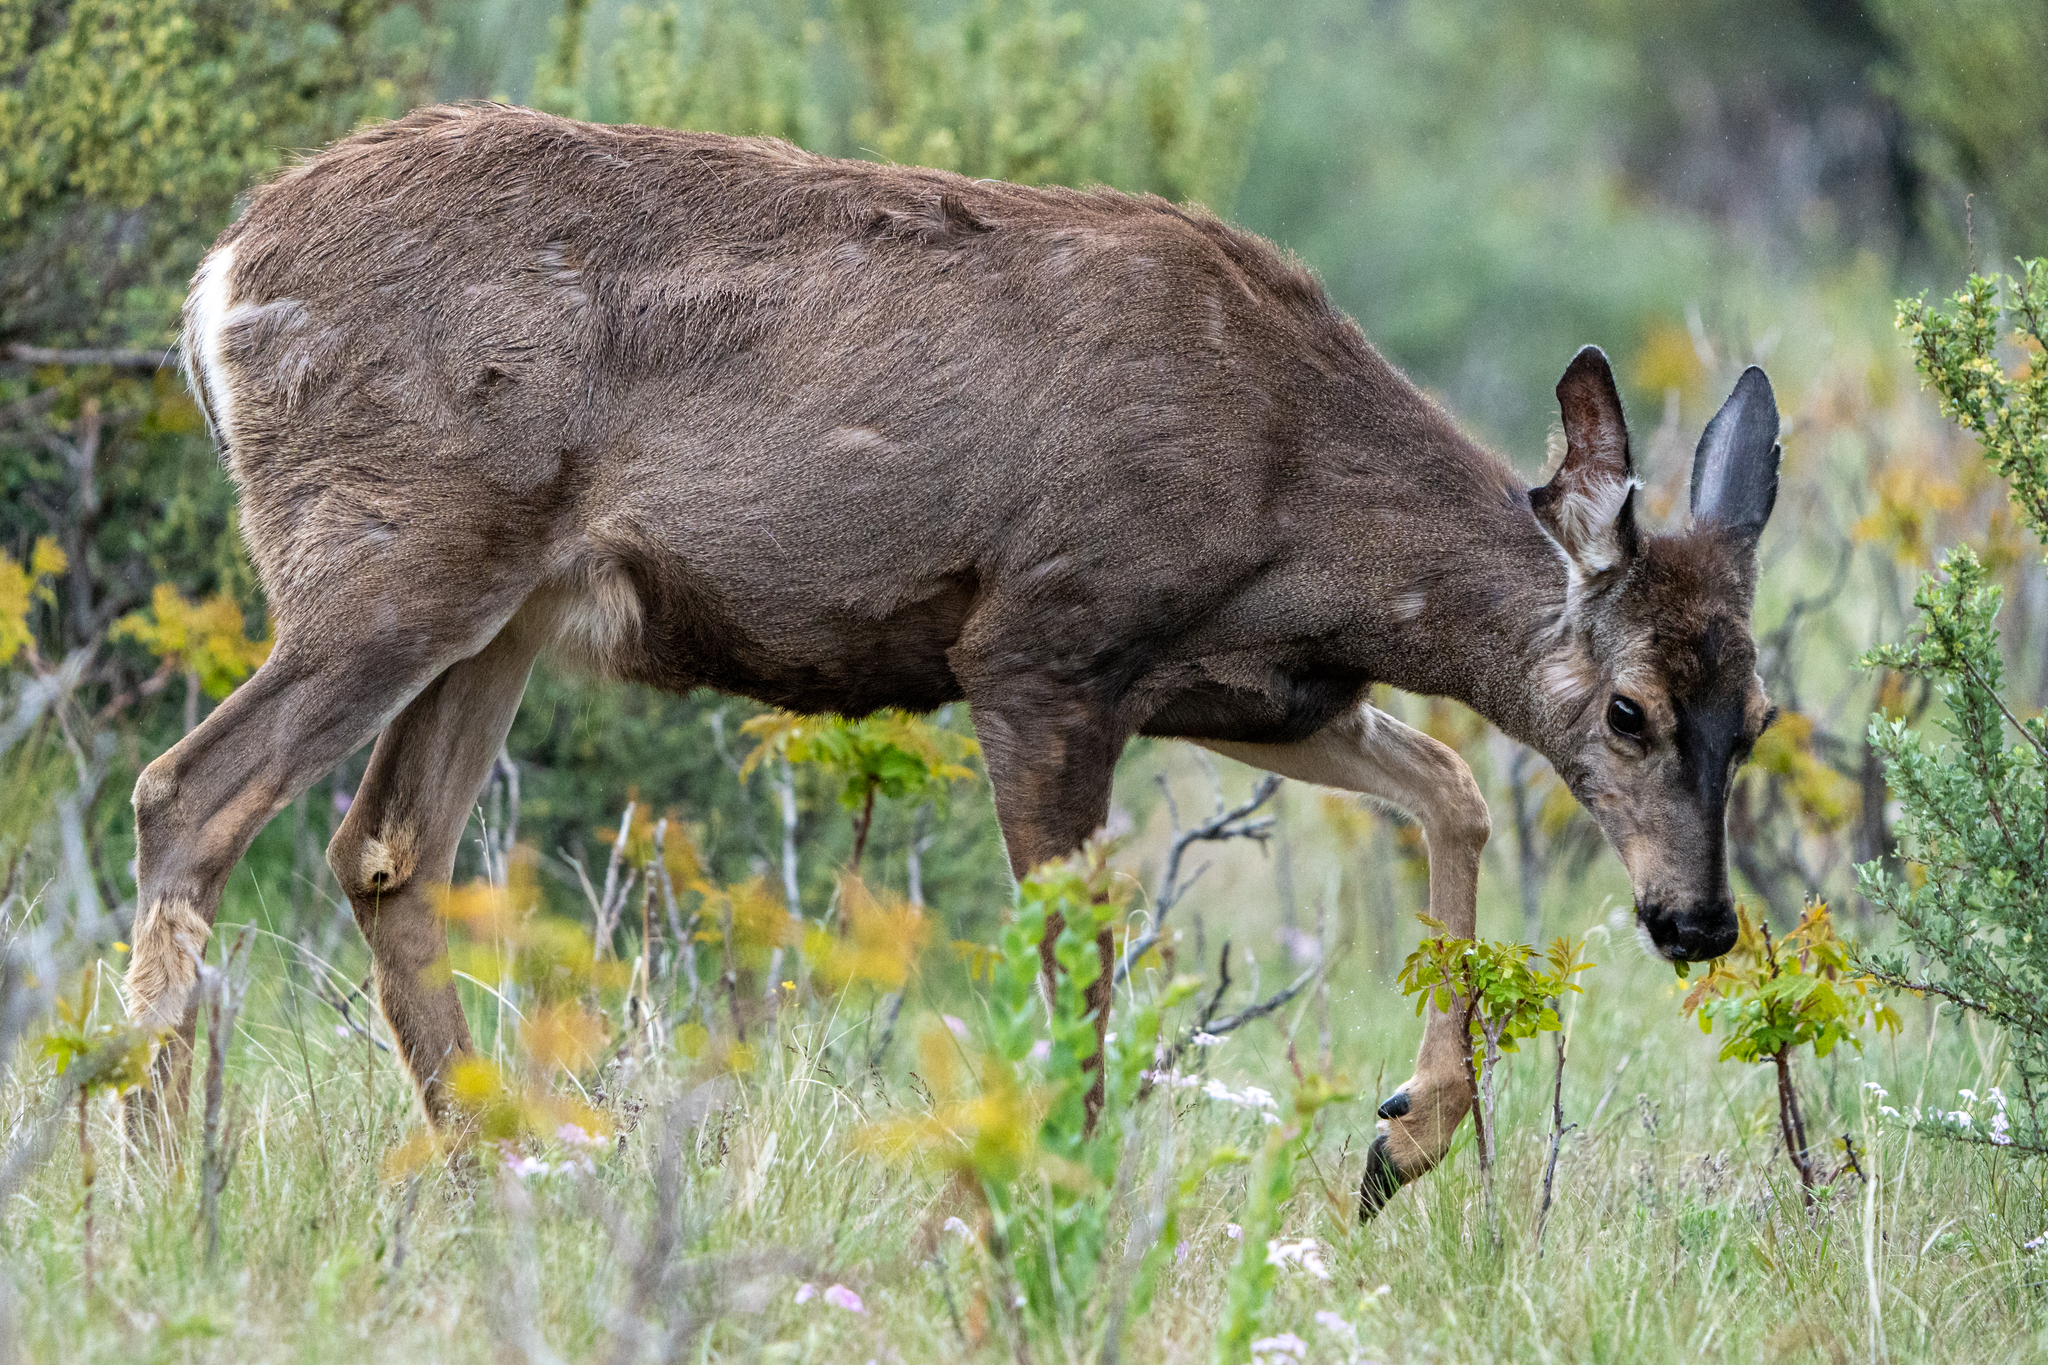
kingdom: Animalia
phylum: Chordata
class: Mammalia
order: Artiodactyla
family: Cervidae
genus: Odocoileus
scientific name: Odocoileus hemionus
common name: Mule deer
